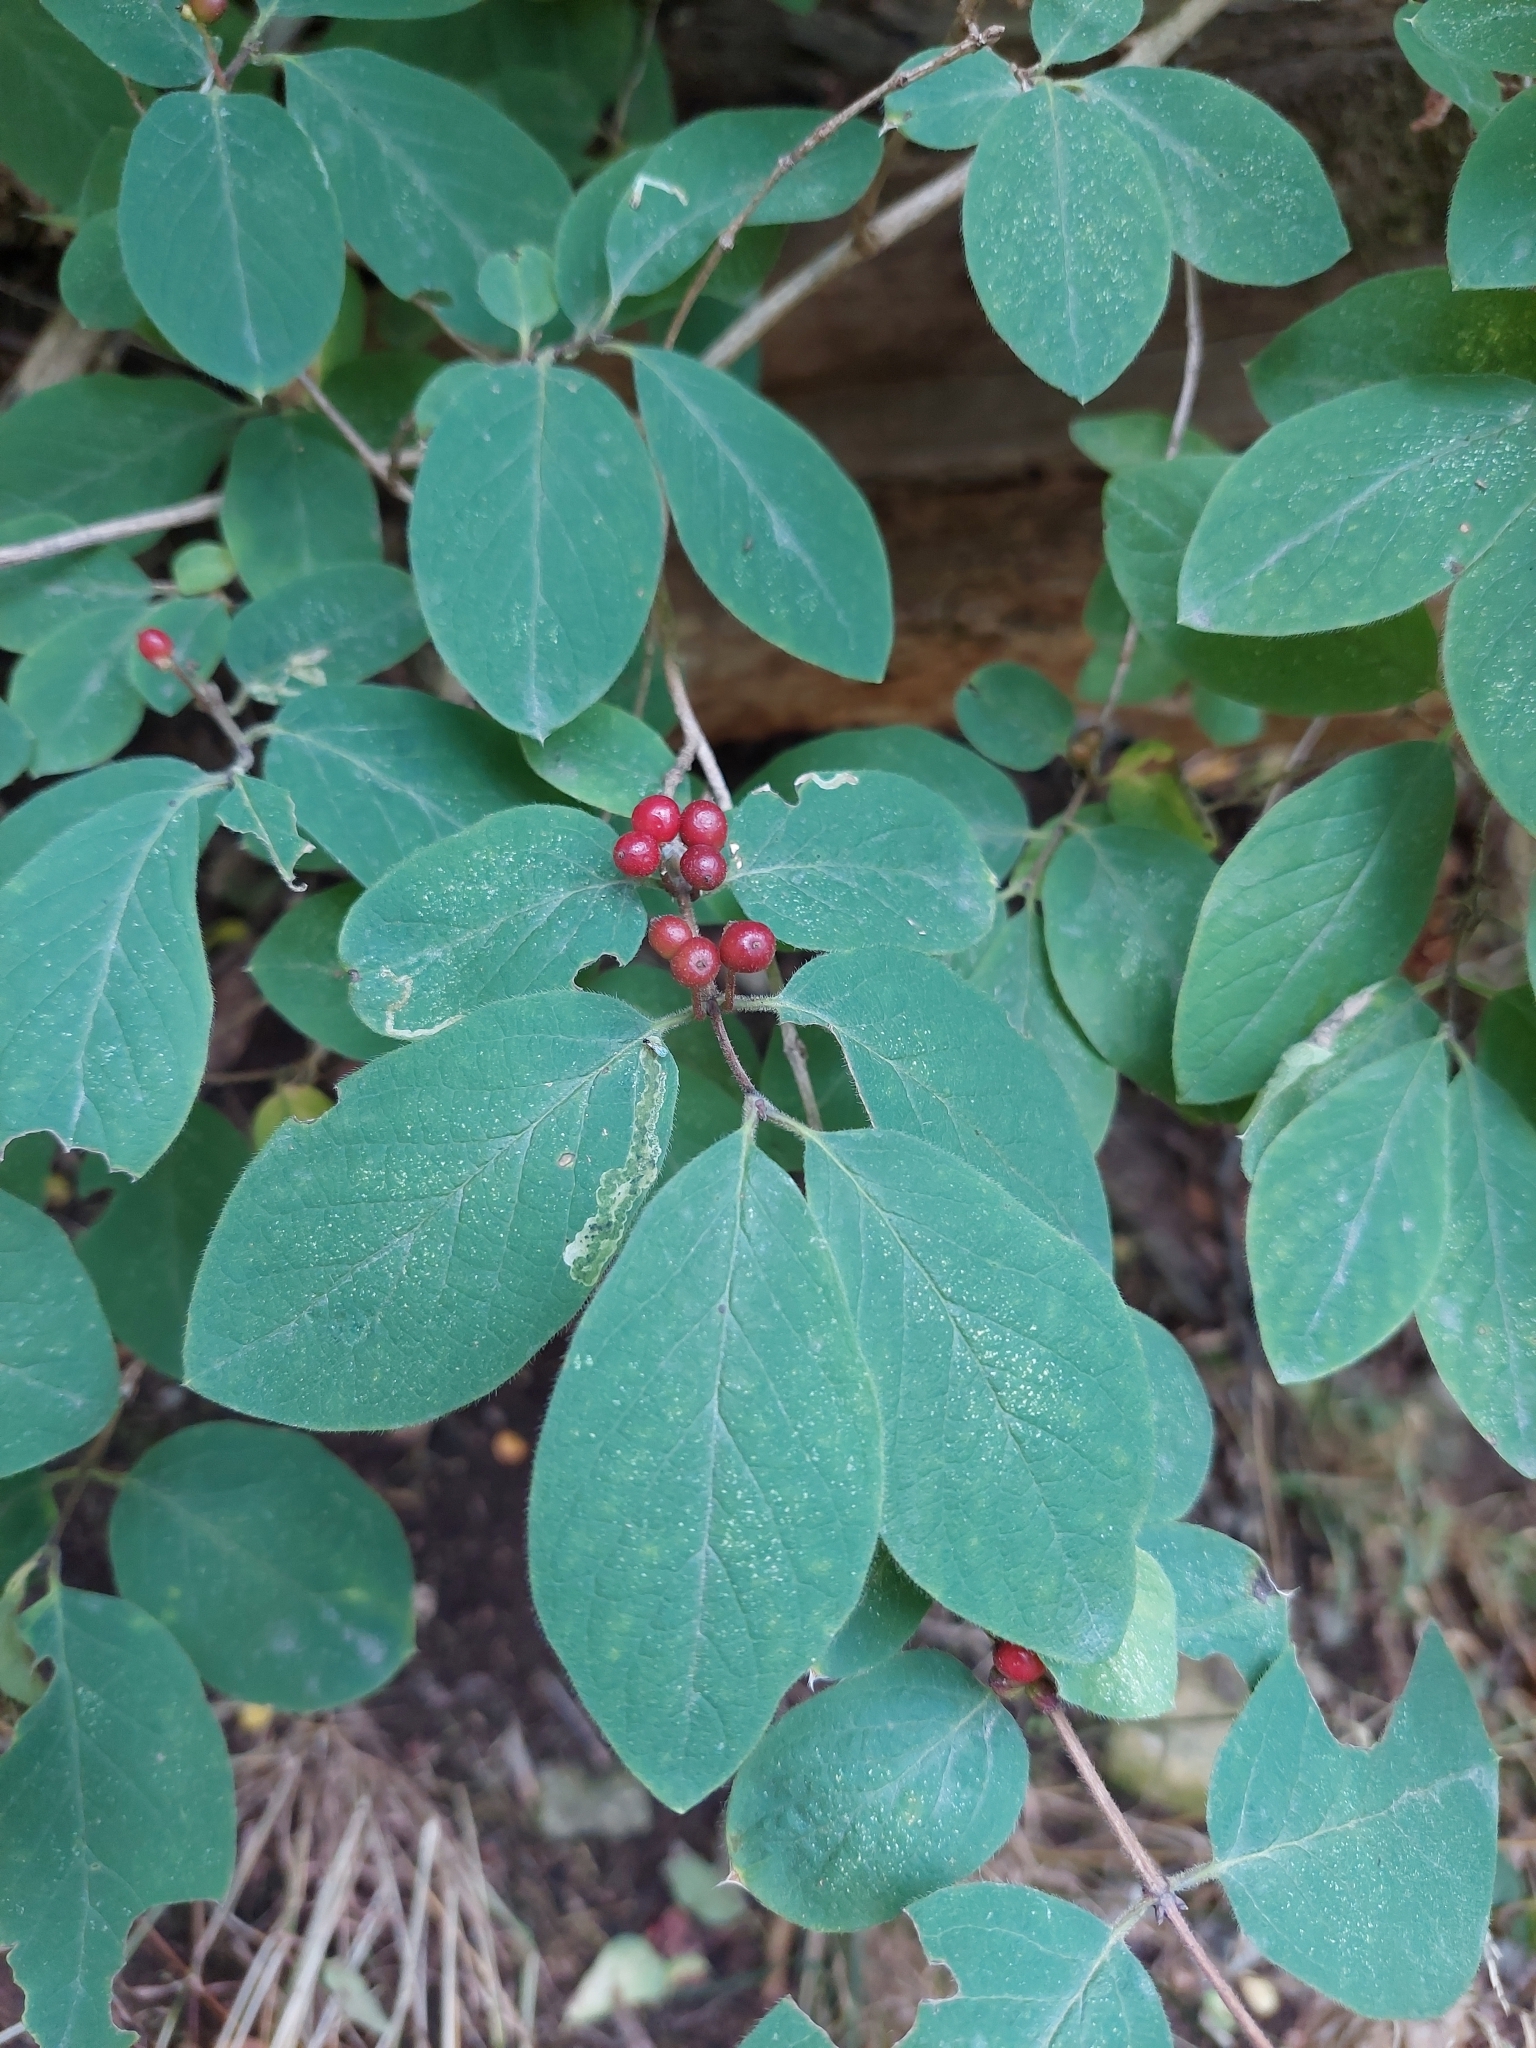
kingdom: Plantae
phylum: Tracheophyta
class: Magnoliopsida
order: Dipsacales
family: Caprifoliaceae
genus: Lonicera
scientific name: Lonicera xylosteum
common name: Fly honeysuckle
